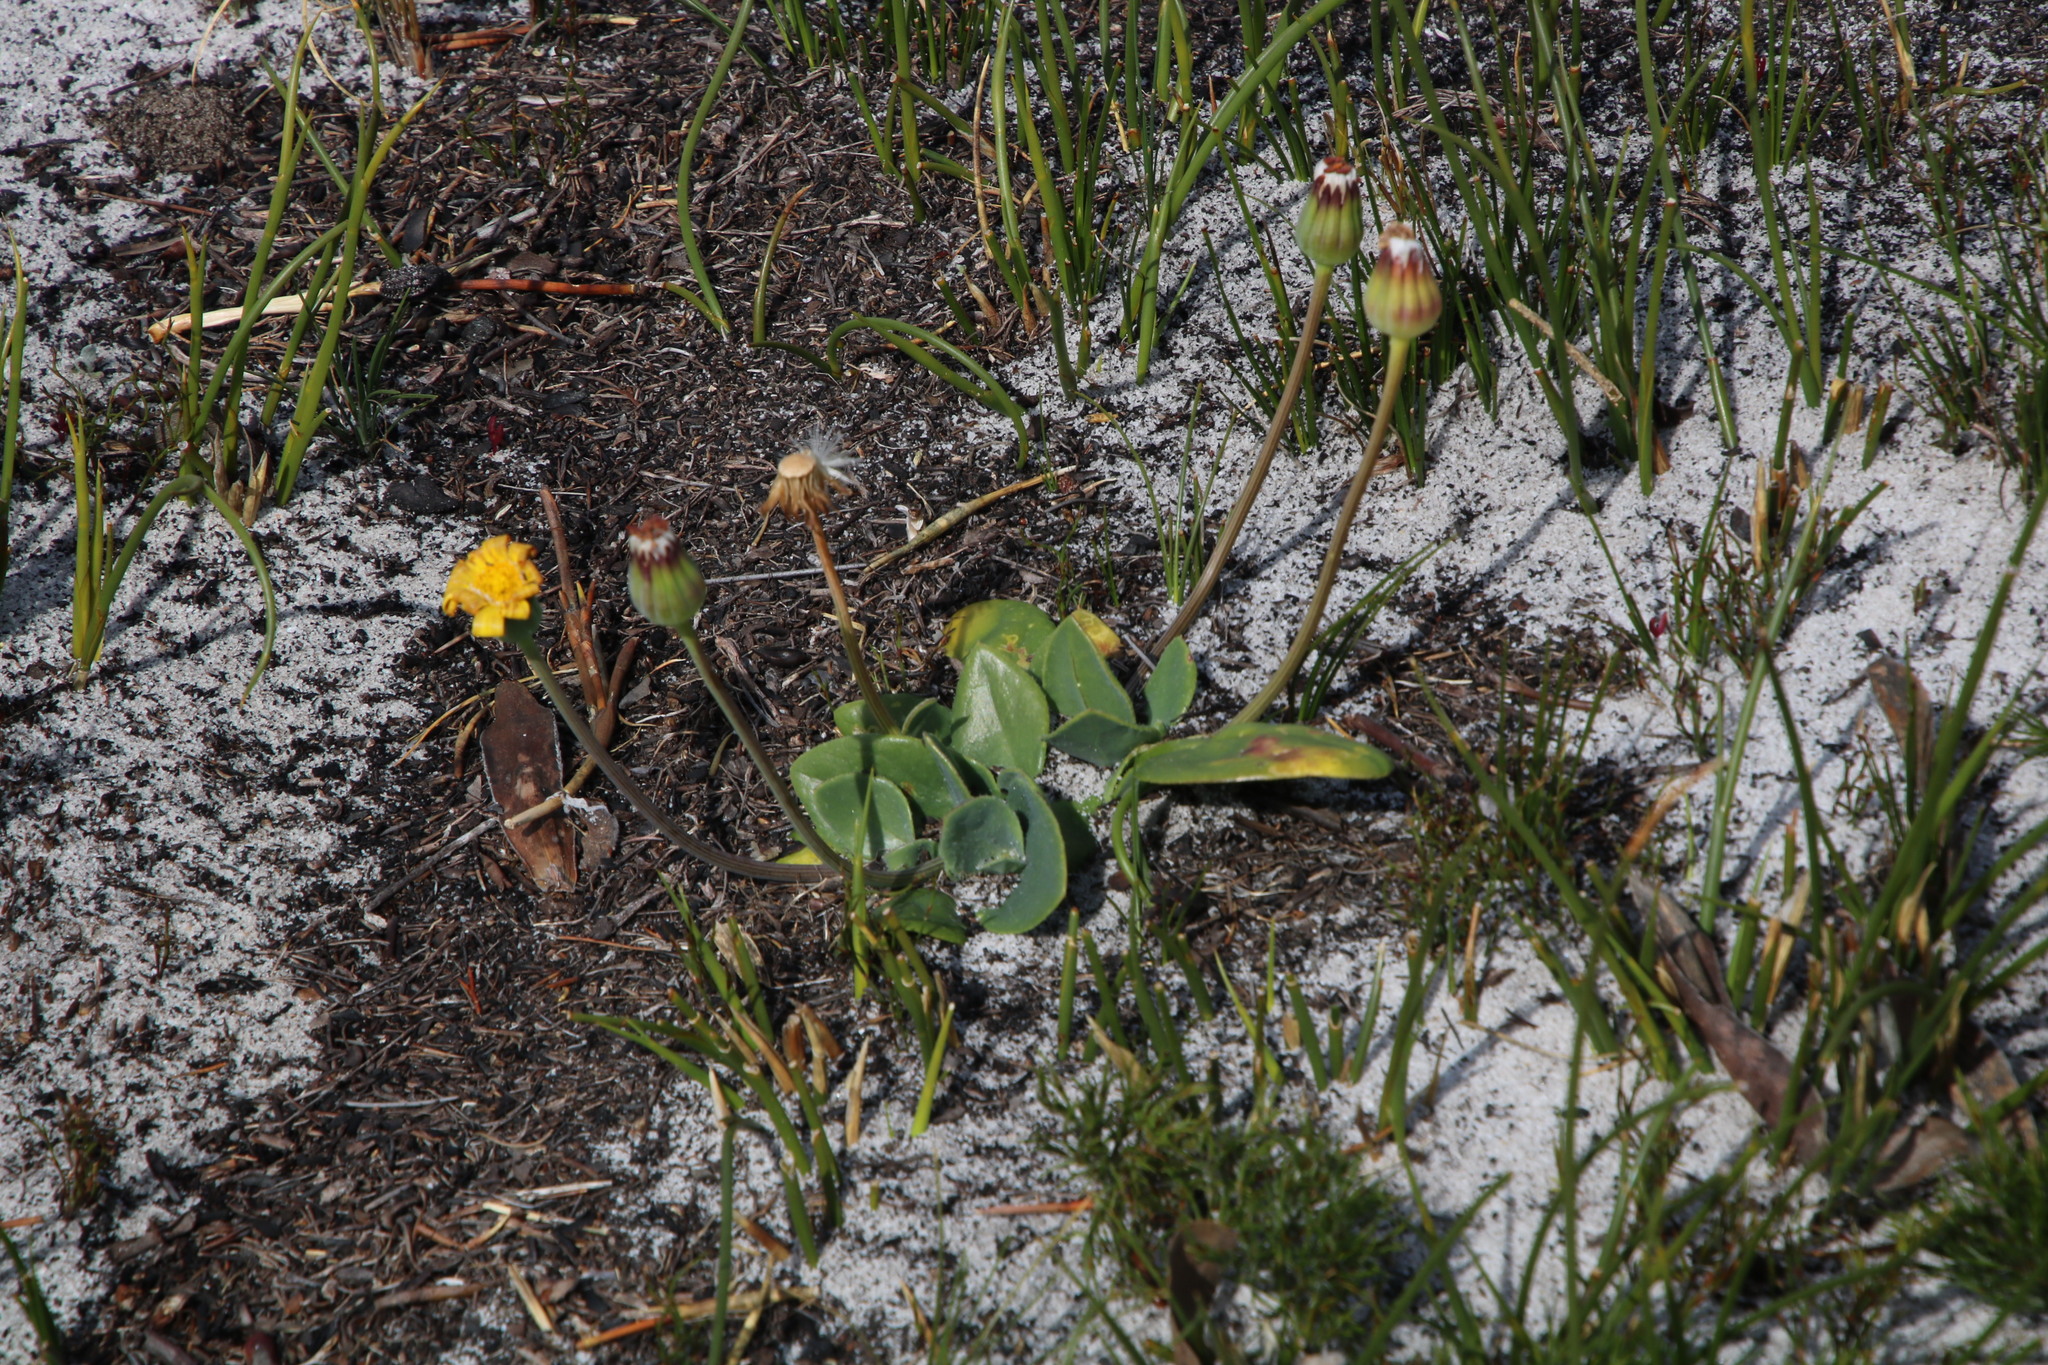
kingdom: Plantae
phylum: Tracheophyta
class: Magnoliopsida
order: Asterales
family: Asteraceae
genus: Othonna
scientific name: Othonna bulbosa
